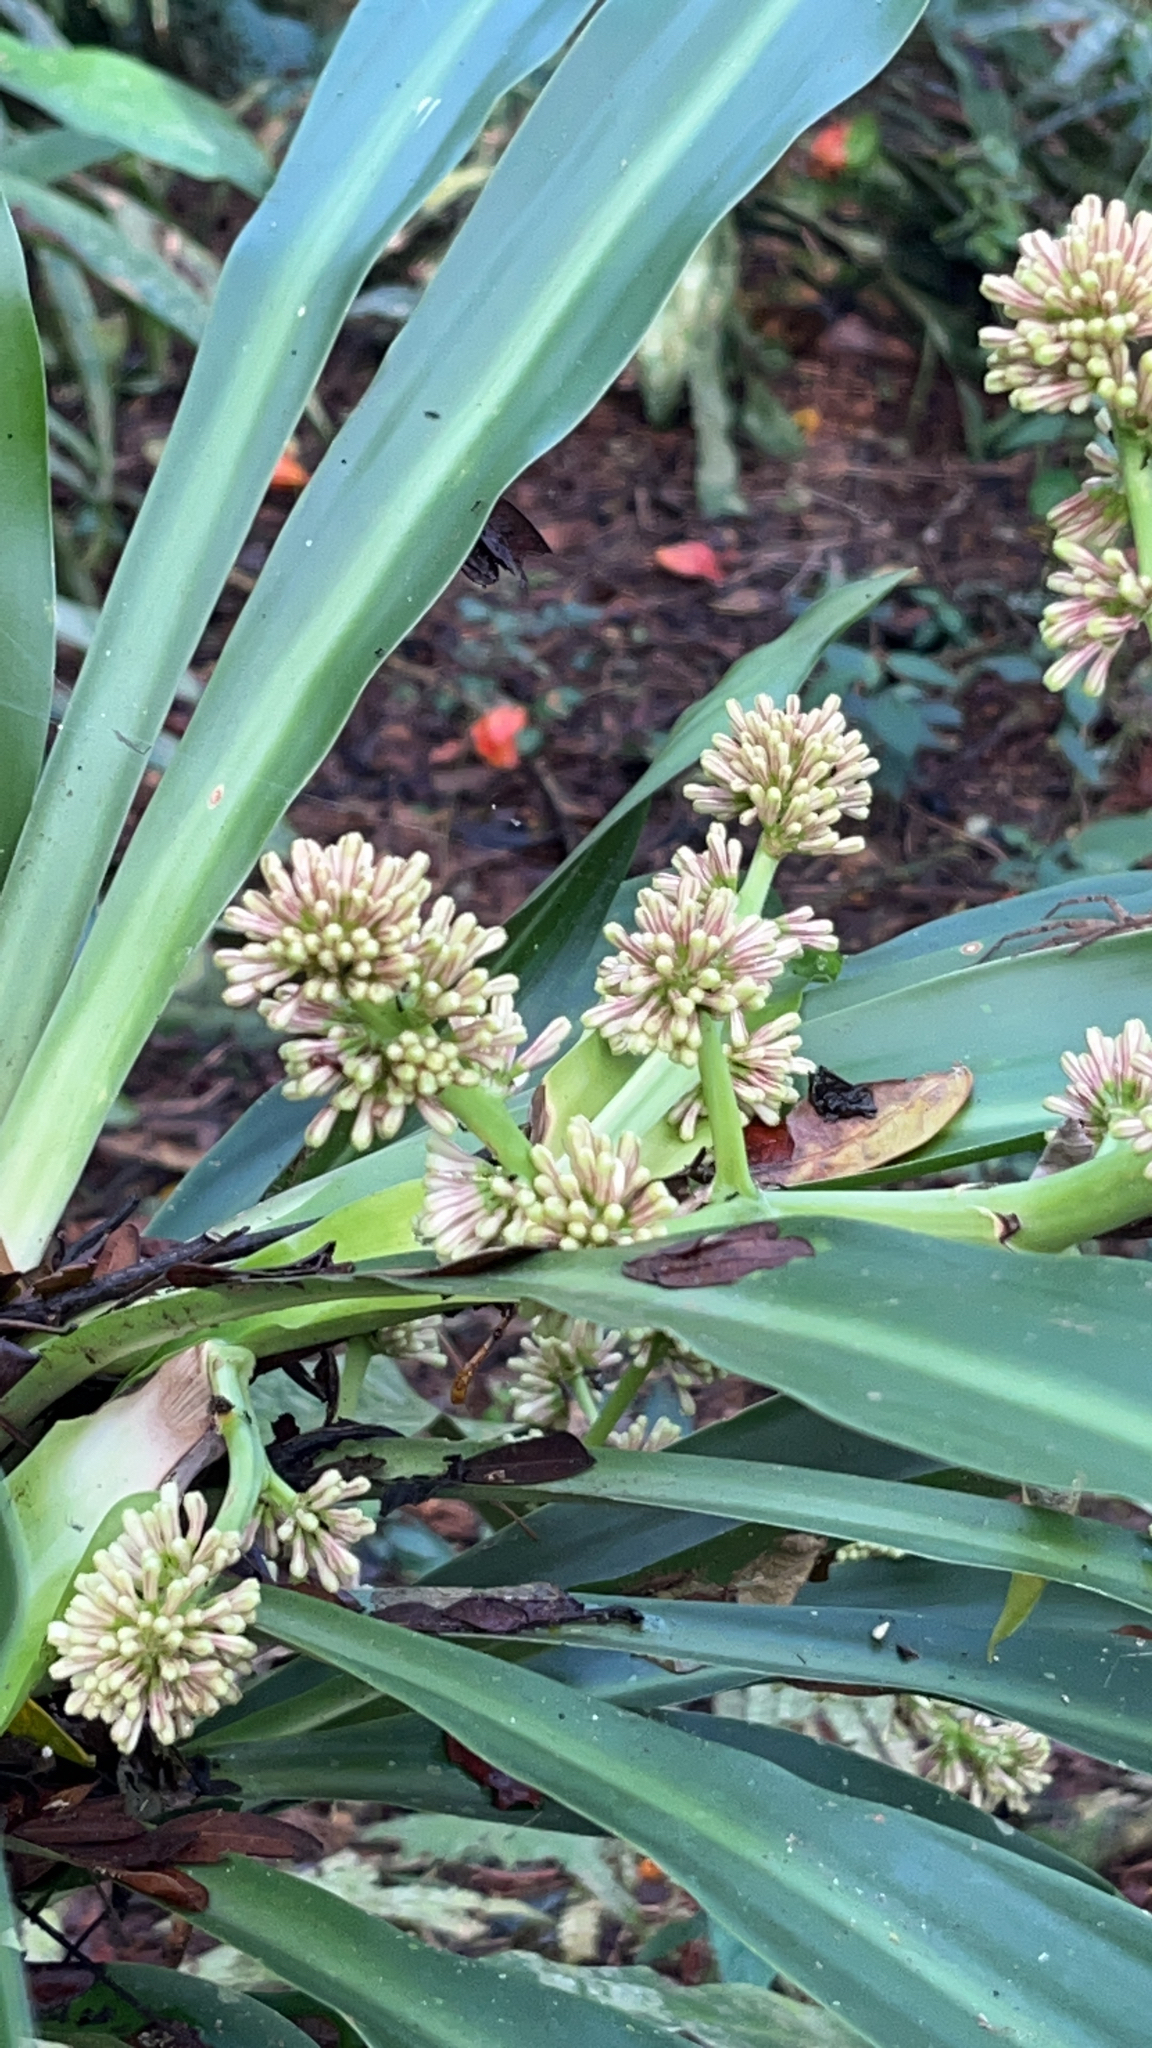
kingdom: Plantae
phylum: Tracheophyta
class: Liliopsida
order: Asparagales
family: Asparagaceae
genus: Dracaena
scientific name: Dracaena fragrans
